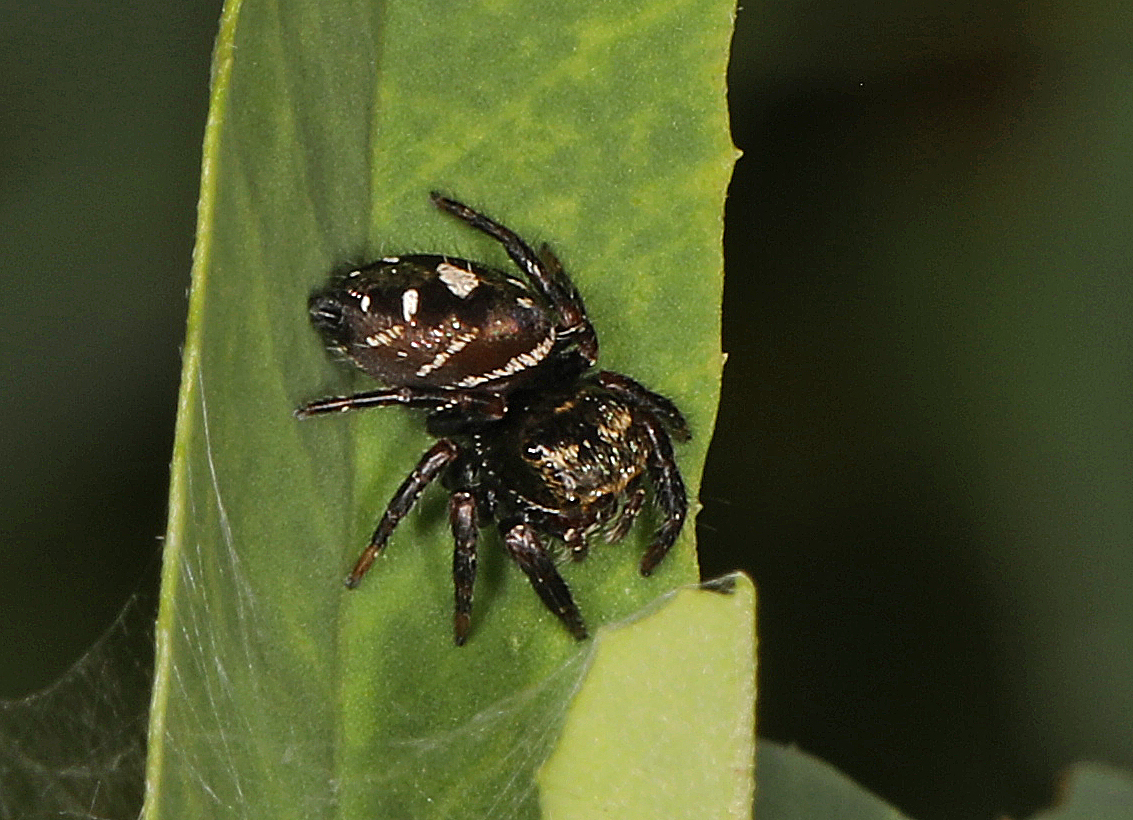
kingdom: Animalia
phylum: Arthropoda
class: Arachnida
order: Araneae
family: Salticidae
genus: Phidippus
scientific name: Phidippus audax
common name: Bold jumper
